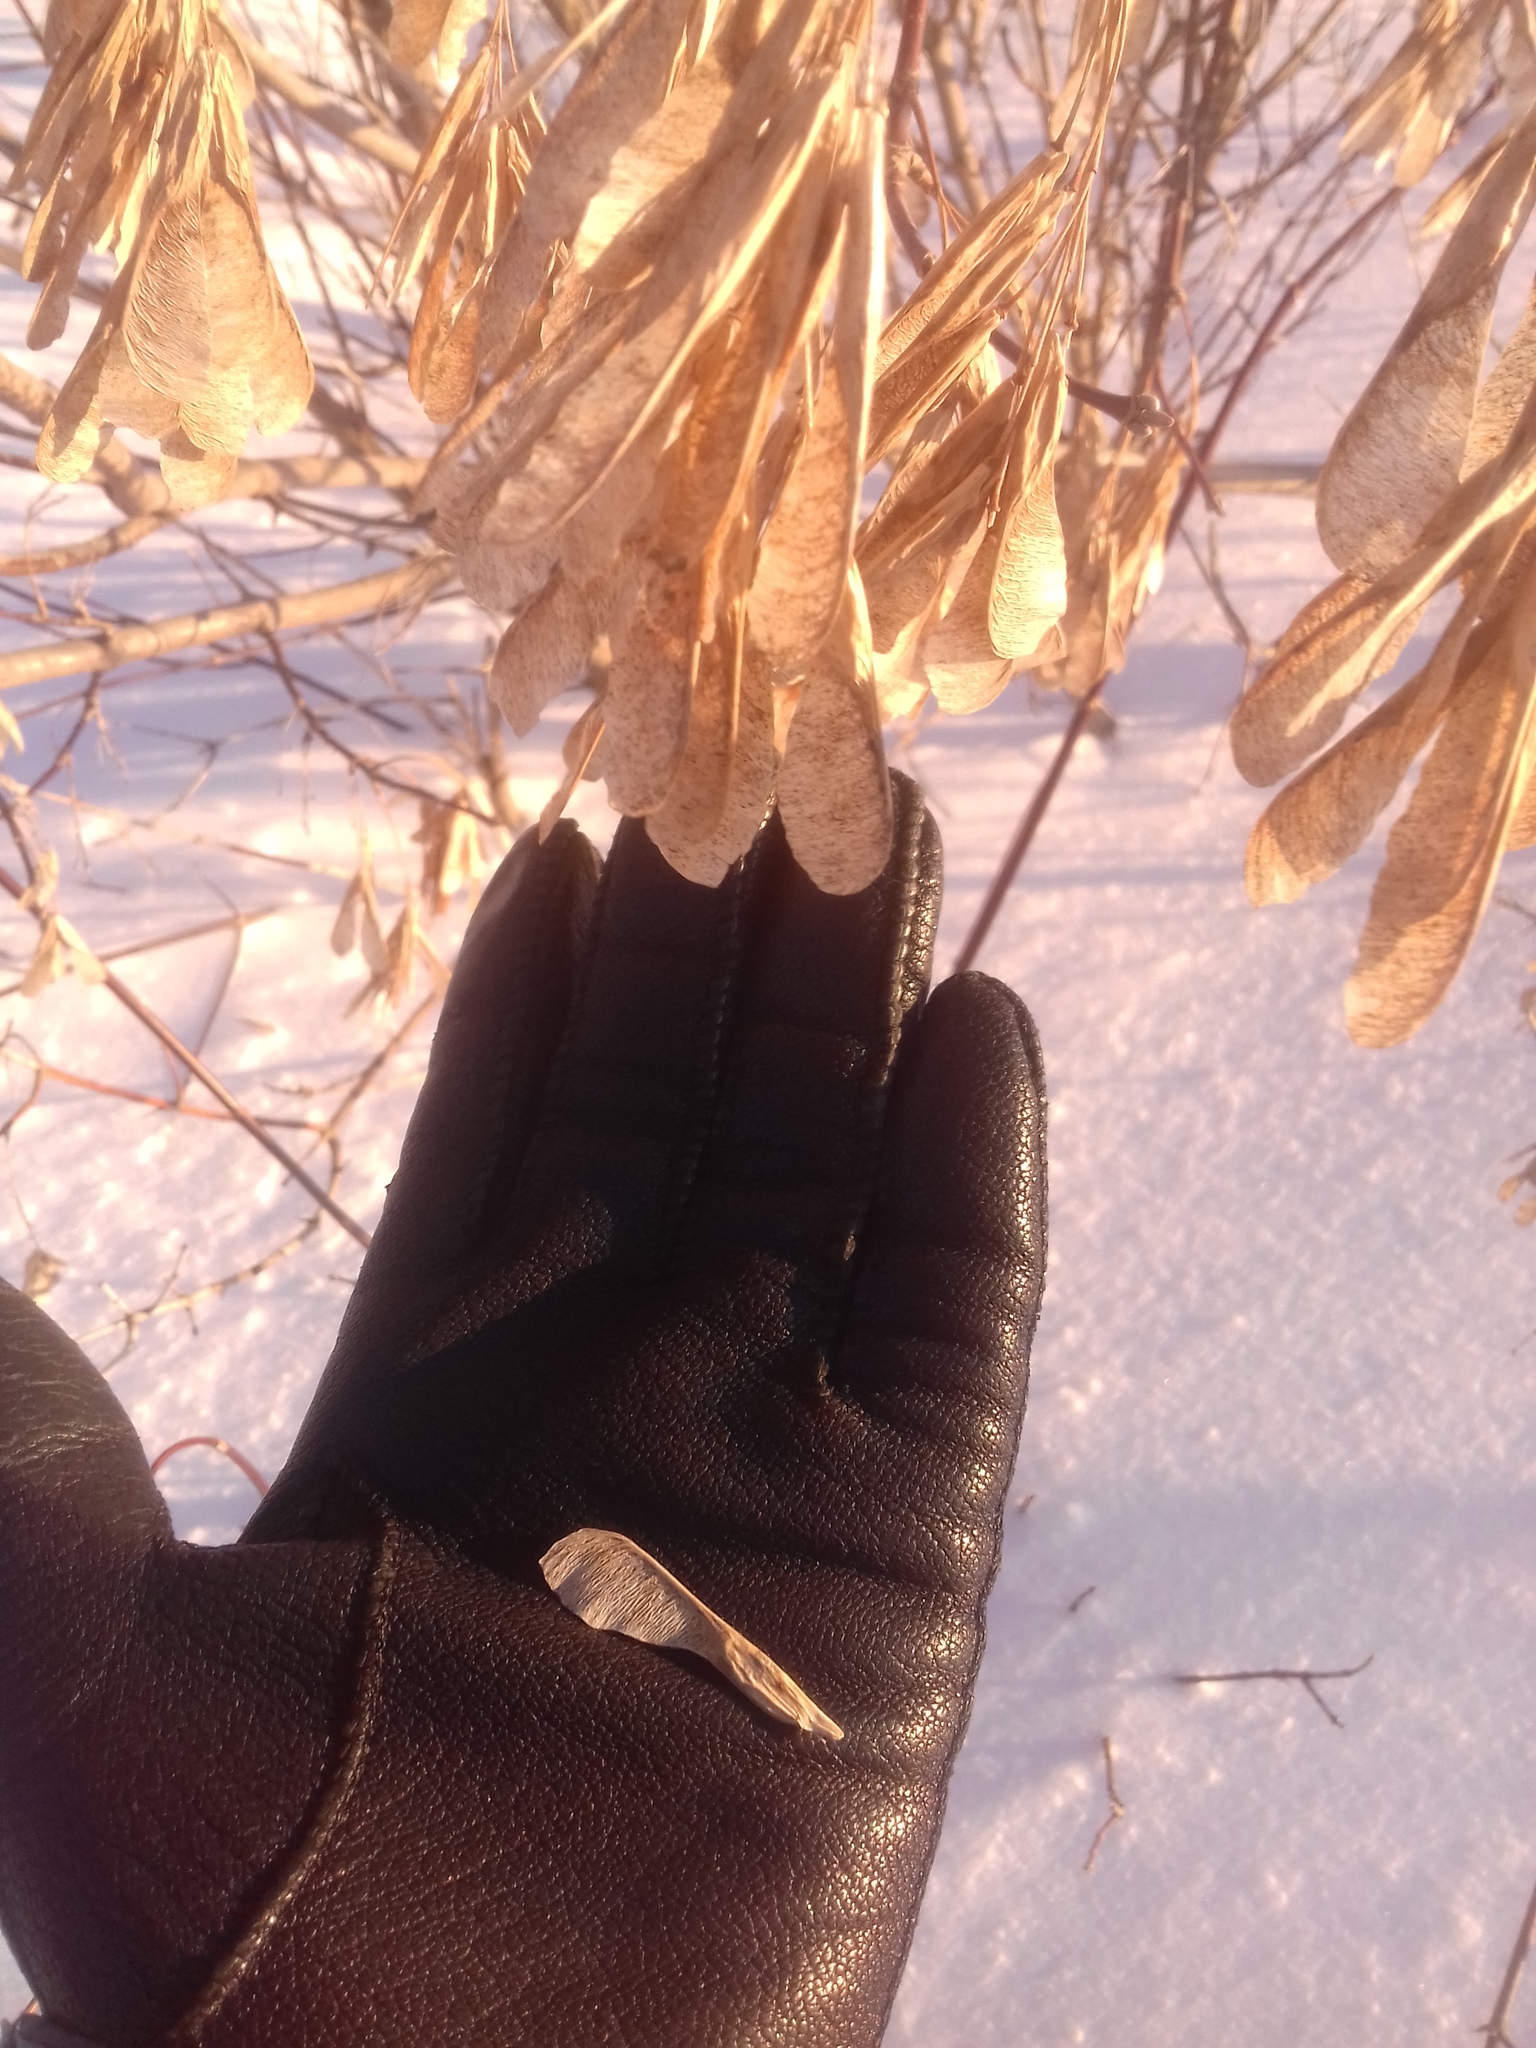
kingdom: Plantae
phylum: Tracheophyta
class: Magnoliopsida
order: Sapindales
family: Sapindaceae
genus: Acer
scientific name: Acer negundo
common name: Ashleaf maple
